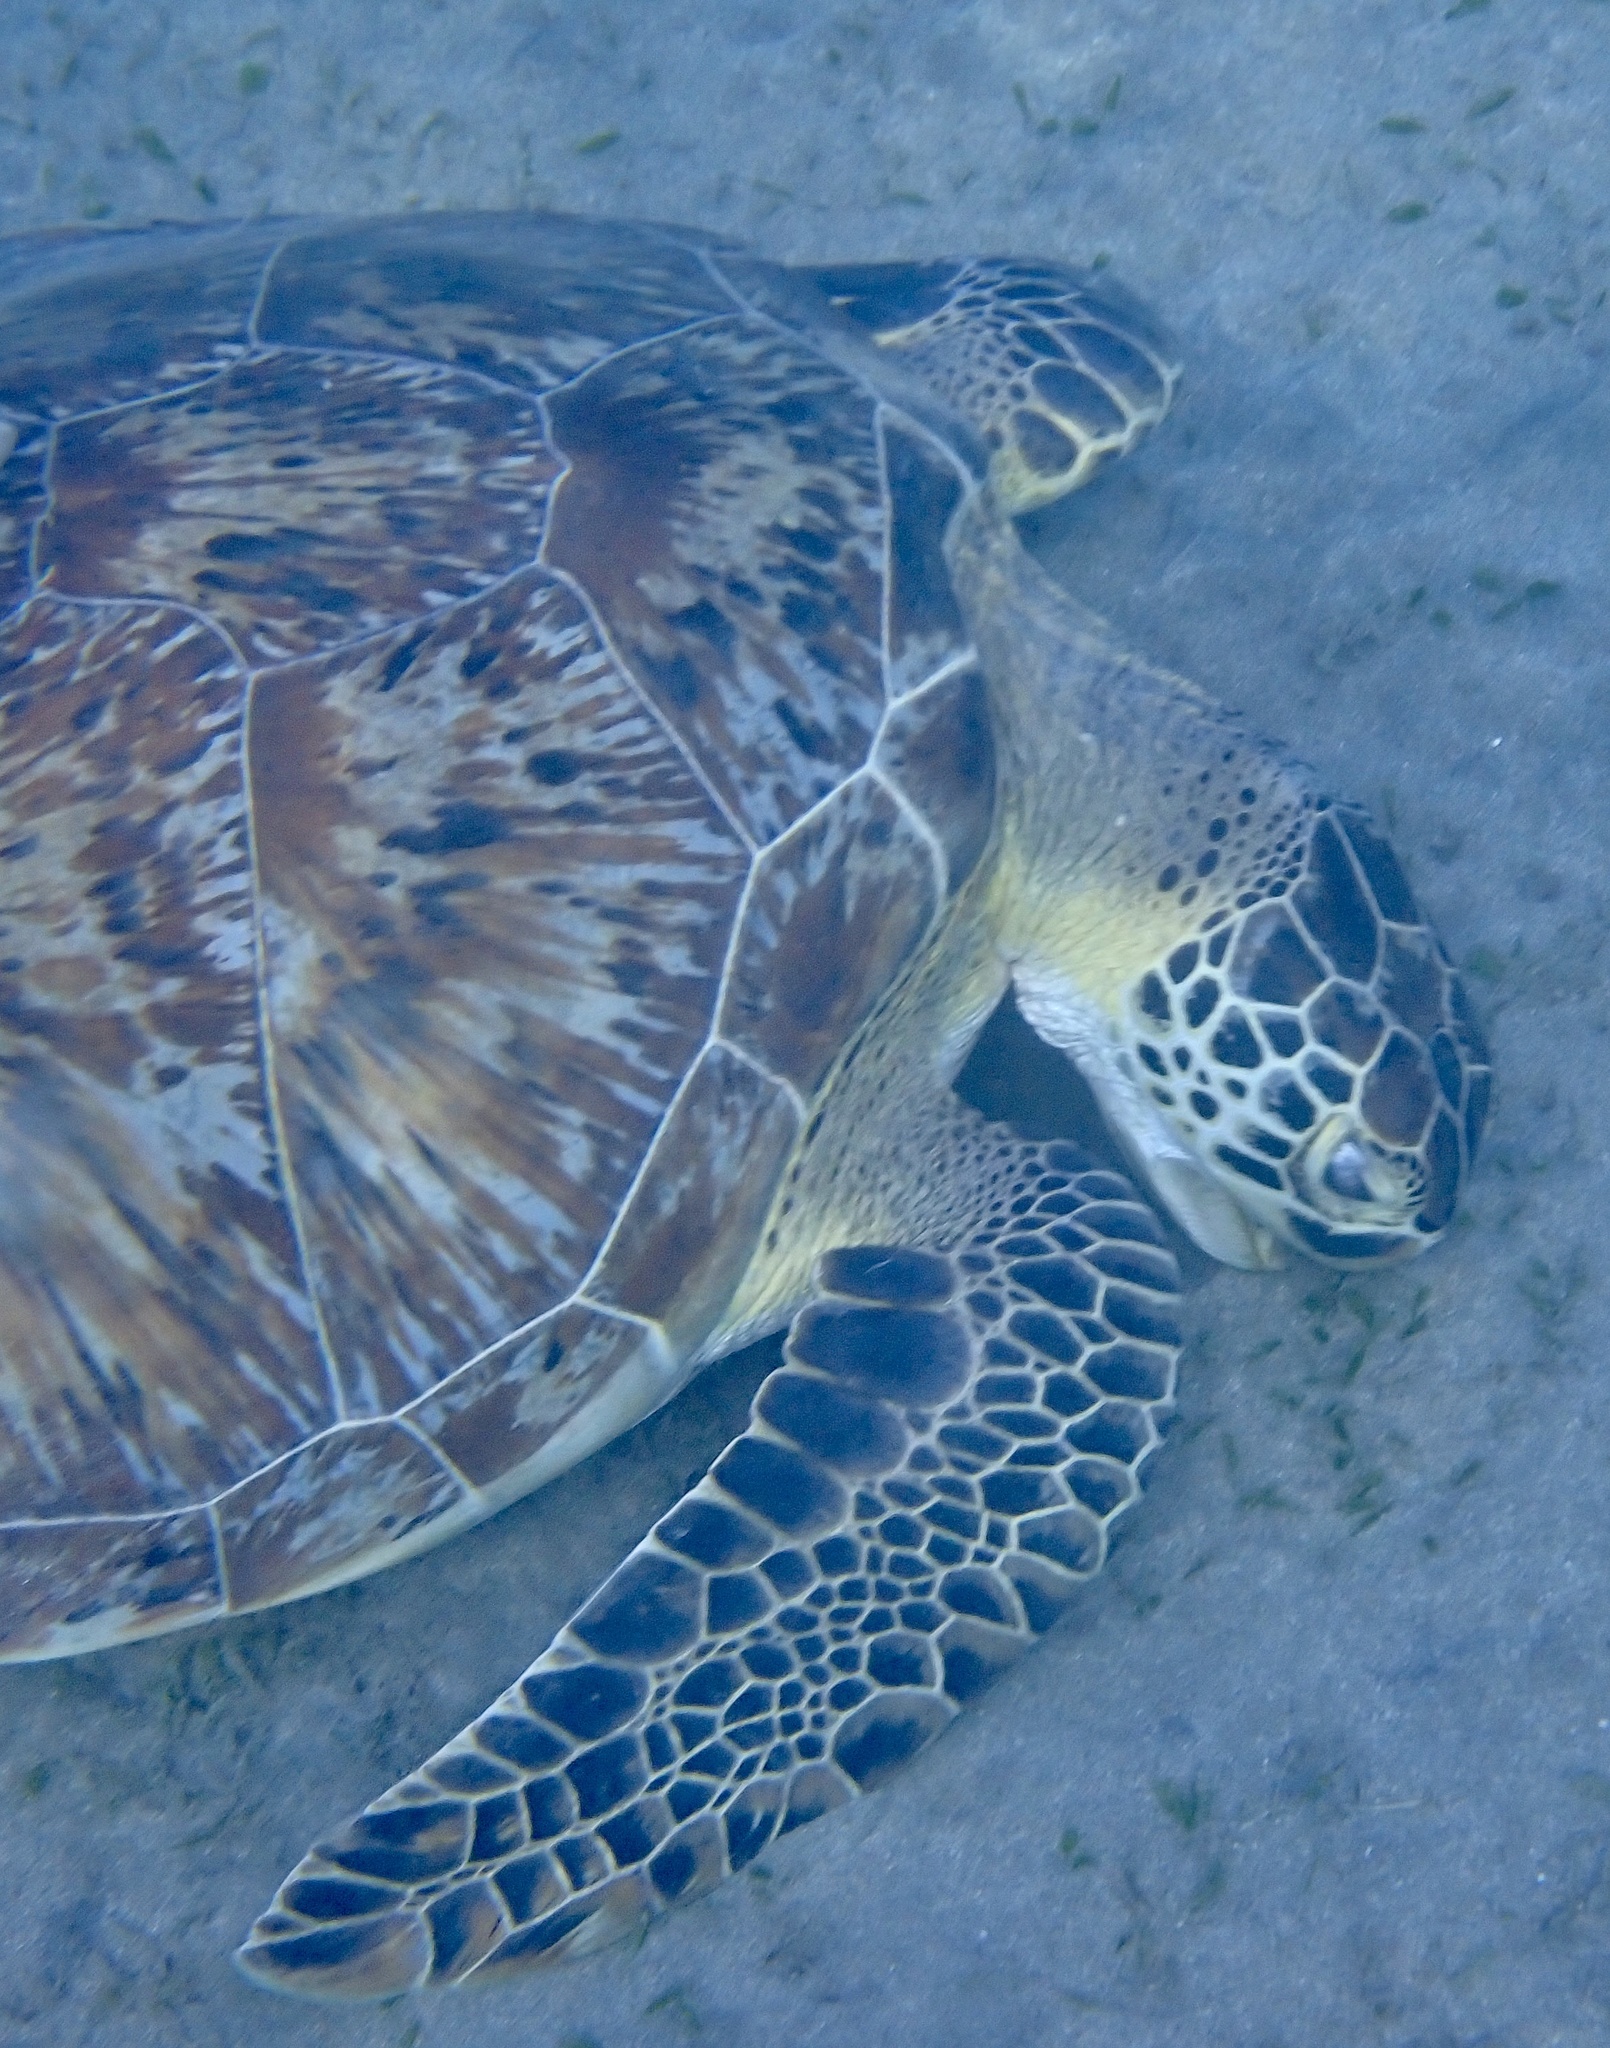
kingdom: Animalia
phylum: Chordata
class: Testudines
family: Cheloniidae
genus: Chelonia
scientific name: Chelonia mydas
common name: Green turtle
